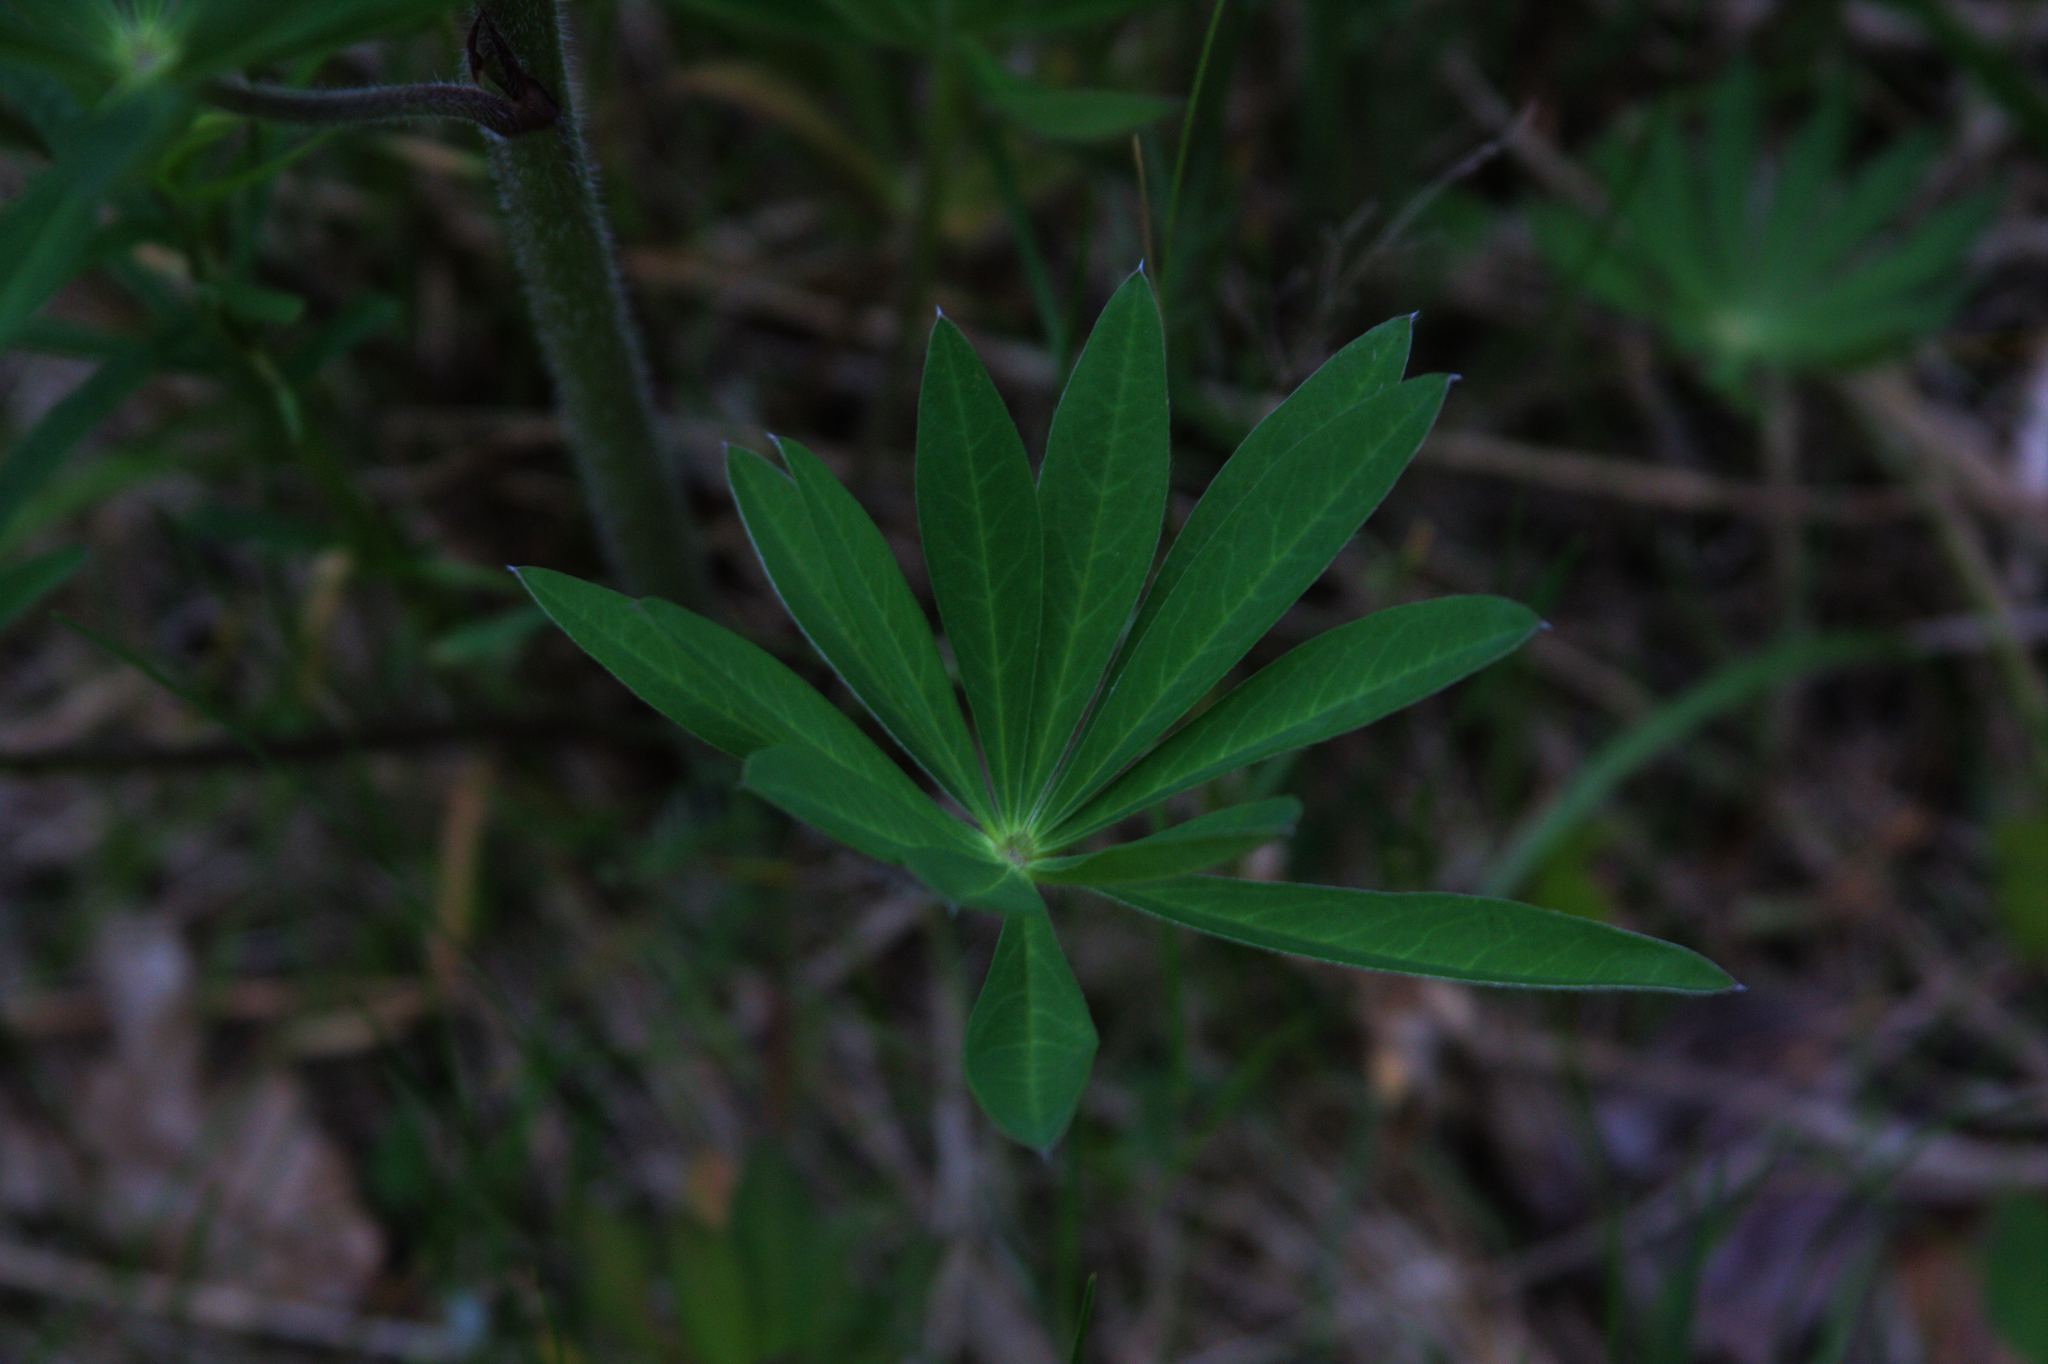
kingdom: Plantae
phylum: Tracheophyta
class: Magnoliopsida
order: Fabales
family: Fabaceae
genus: Lupinus
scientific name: Lupinus polyphyllus
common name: Garden lupin
